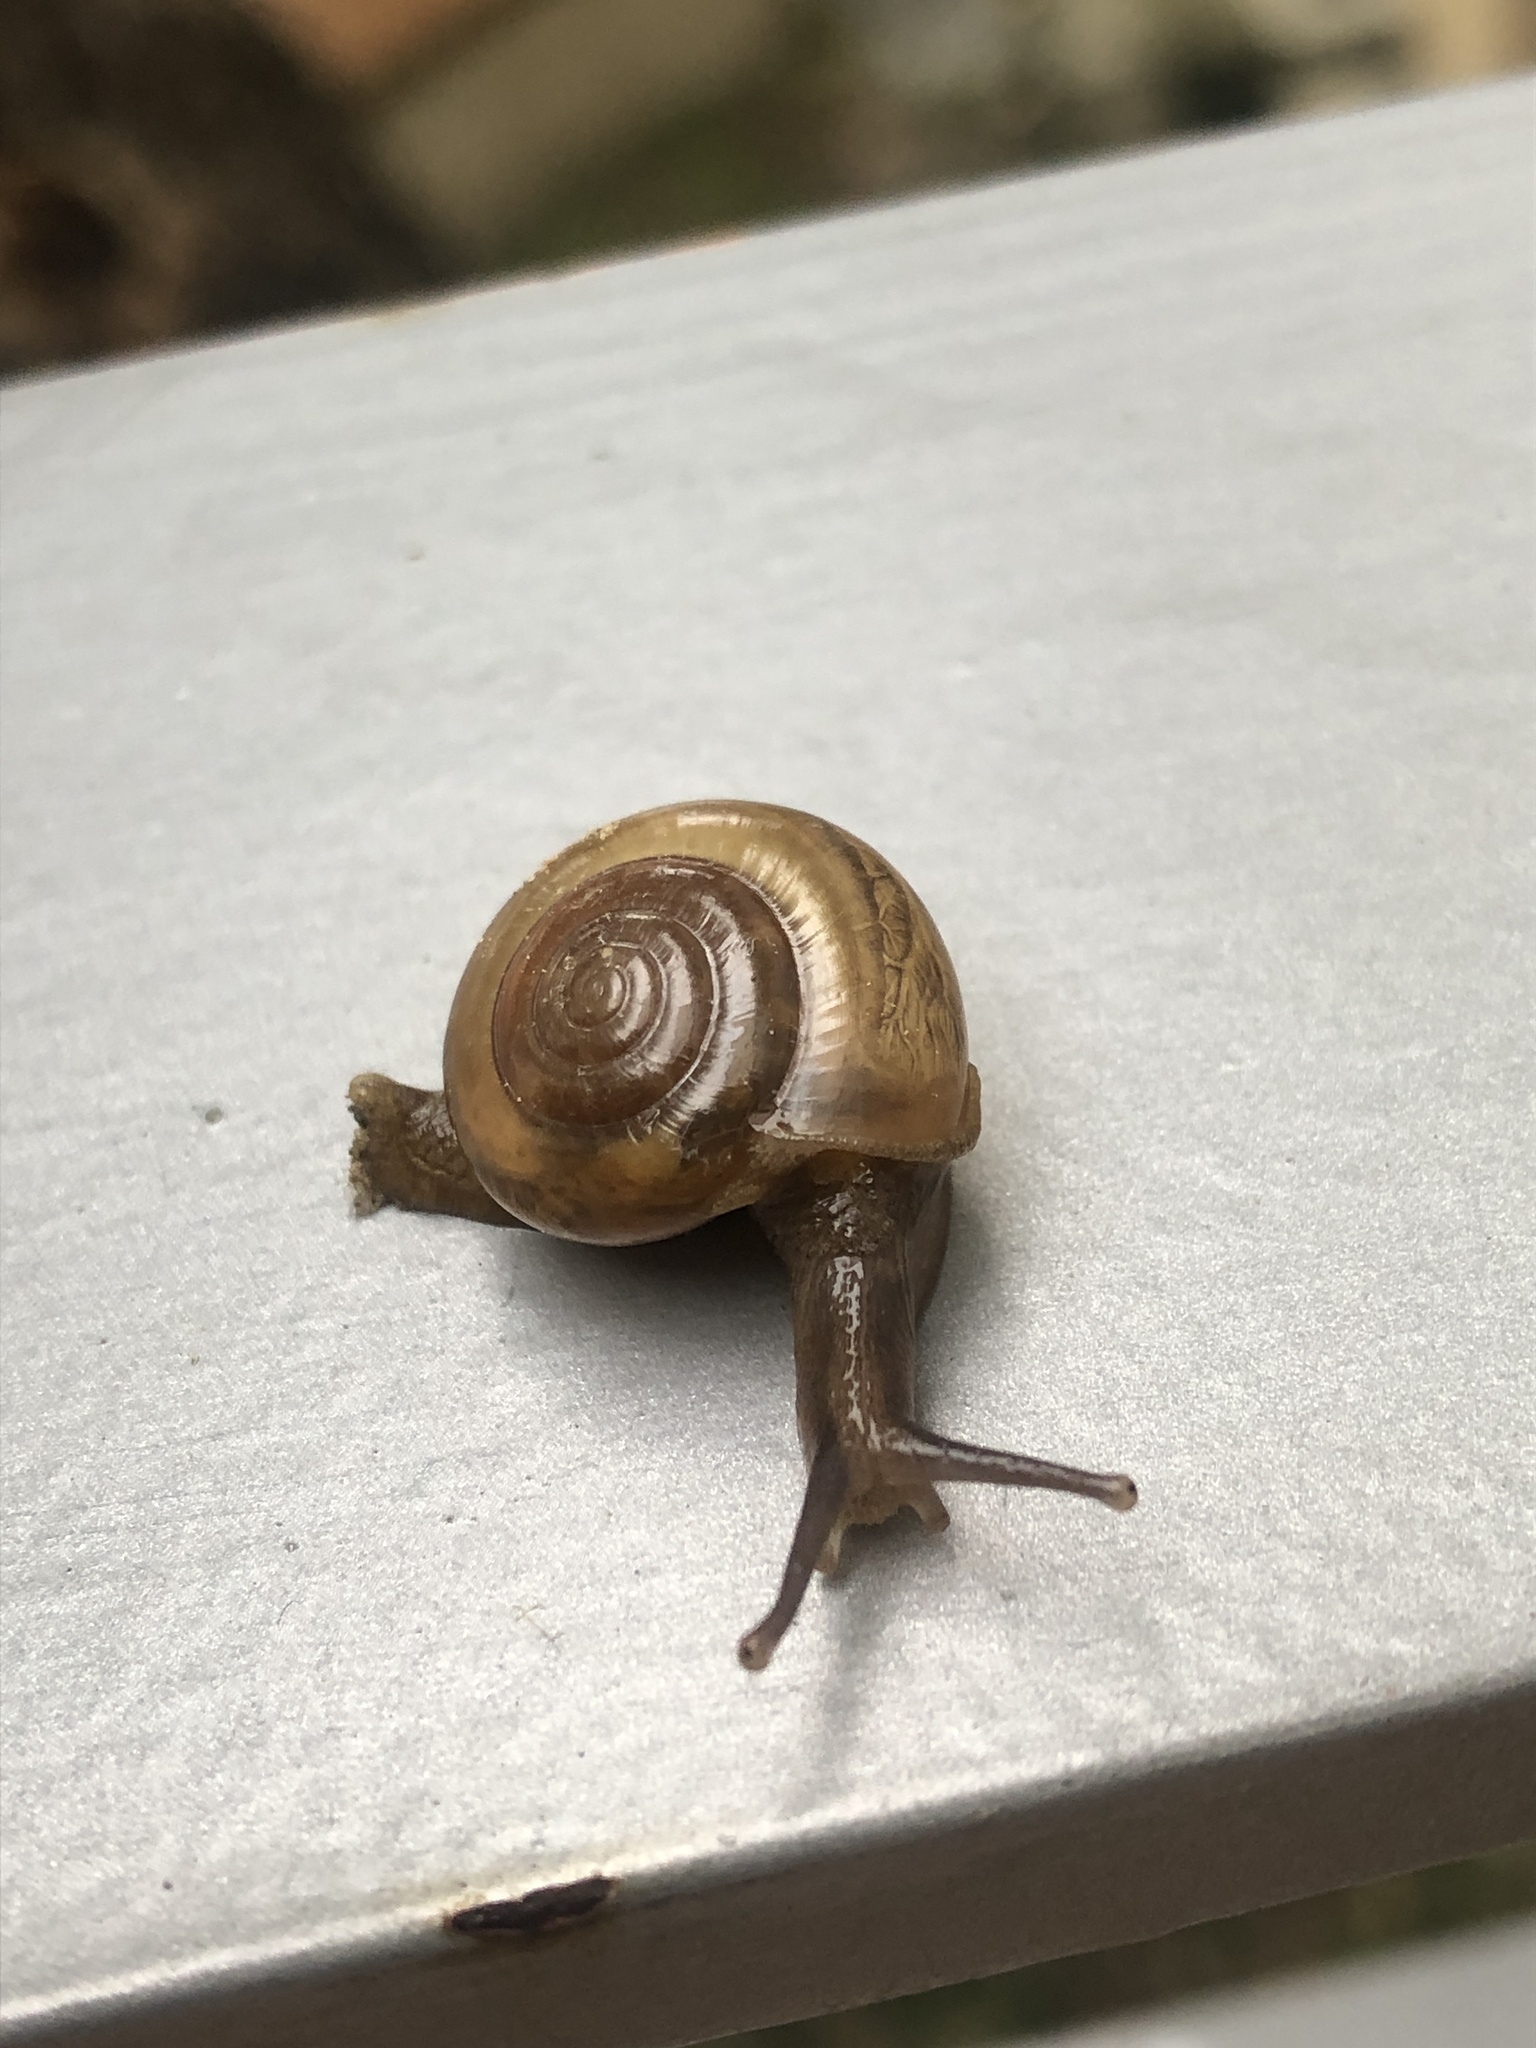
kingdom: Animalia
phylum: Mollusca
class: Gastropoda
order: Stylommatophora
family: Ariophantidae
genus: Macrochlamys
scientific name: Macrochlamys hippocastaneum
